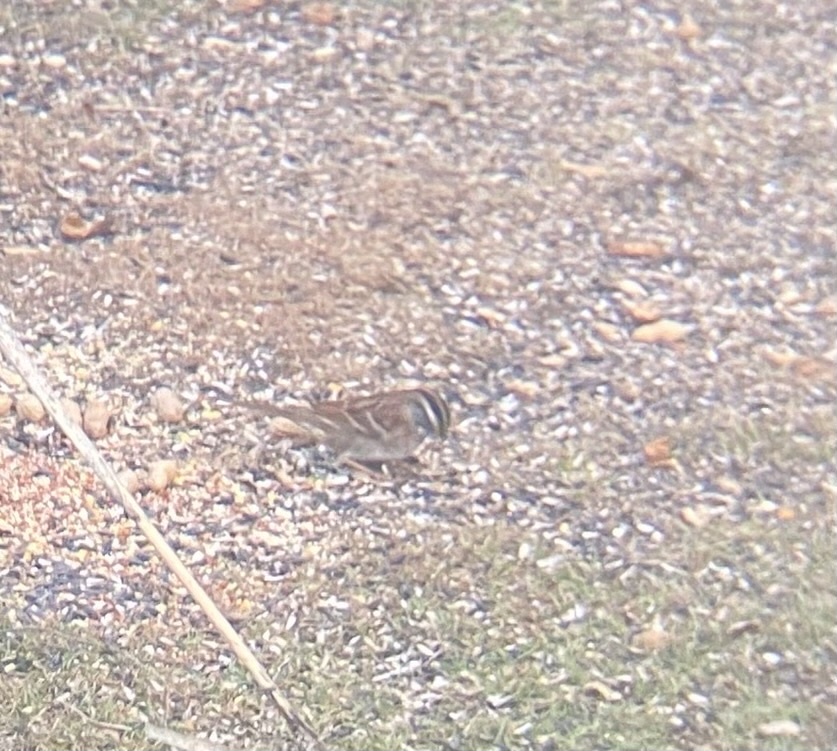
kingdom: Animalia
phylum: Chordata
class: Aves
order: Passeriformes
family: Passerellidae
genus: Zonotrichia
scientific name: Zonotrichia albicollis
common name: White-throated sparrow
